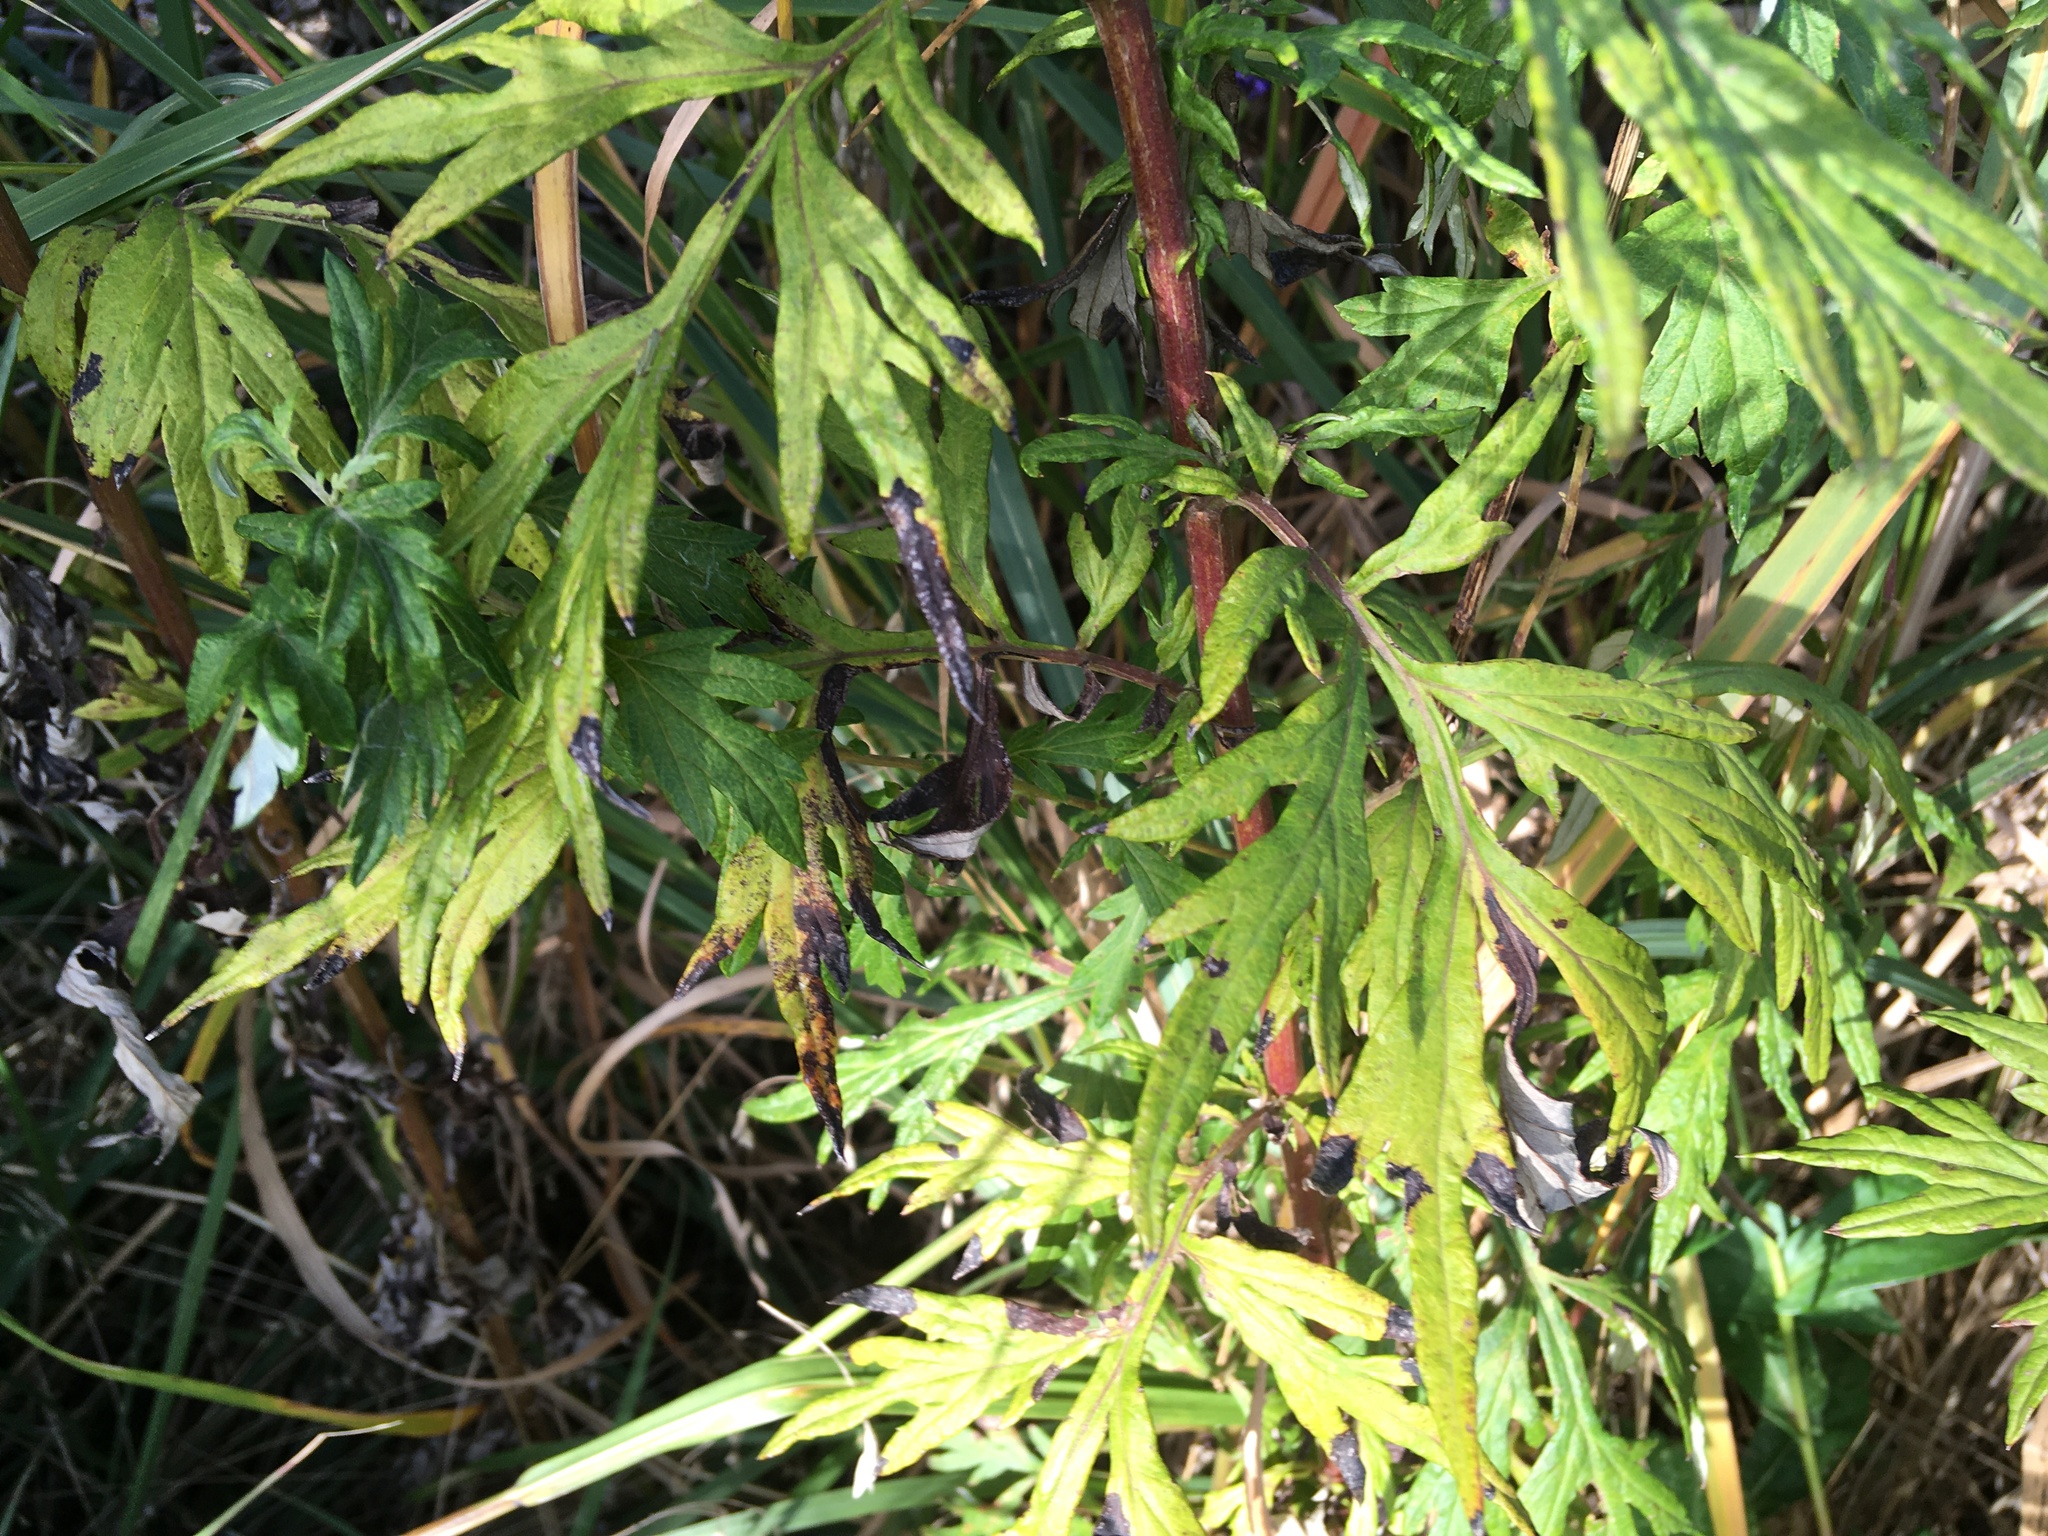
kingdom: Plantae
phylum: Tracheophyta
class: Magnoliopsida
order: Asterales
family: Asteraceae
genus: Artemisia
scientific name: Artemisia vulgaris
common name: Mugwort
